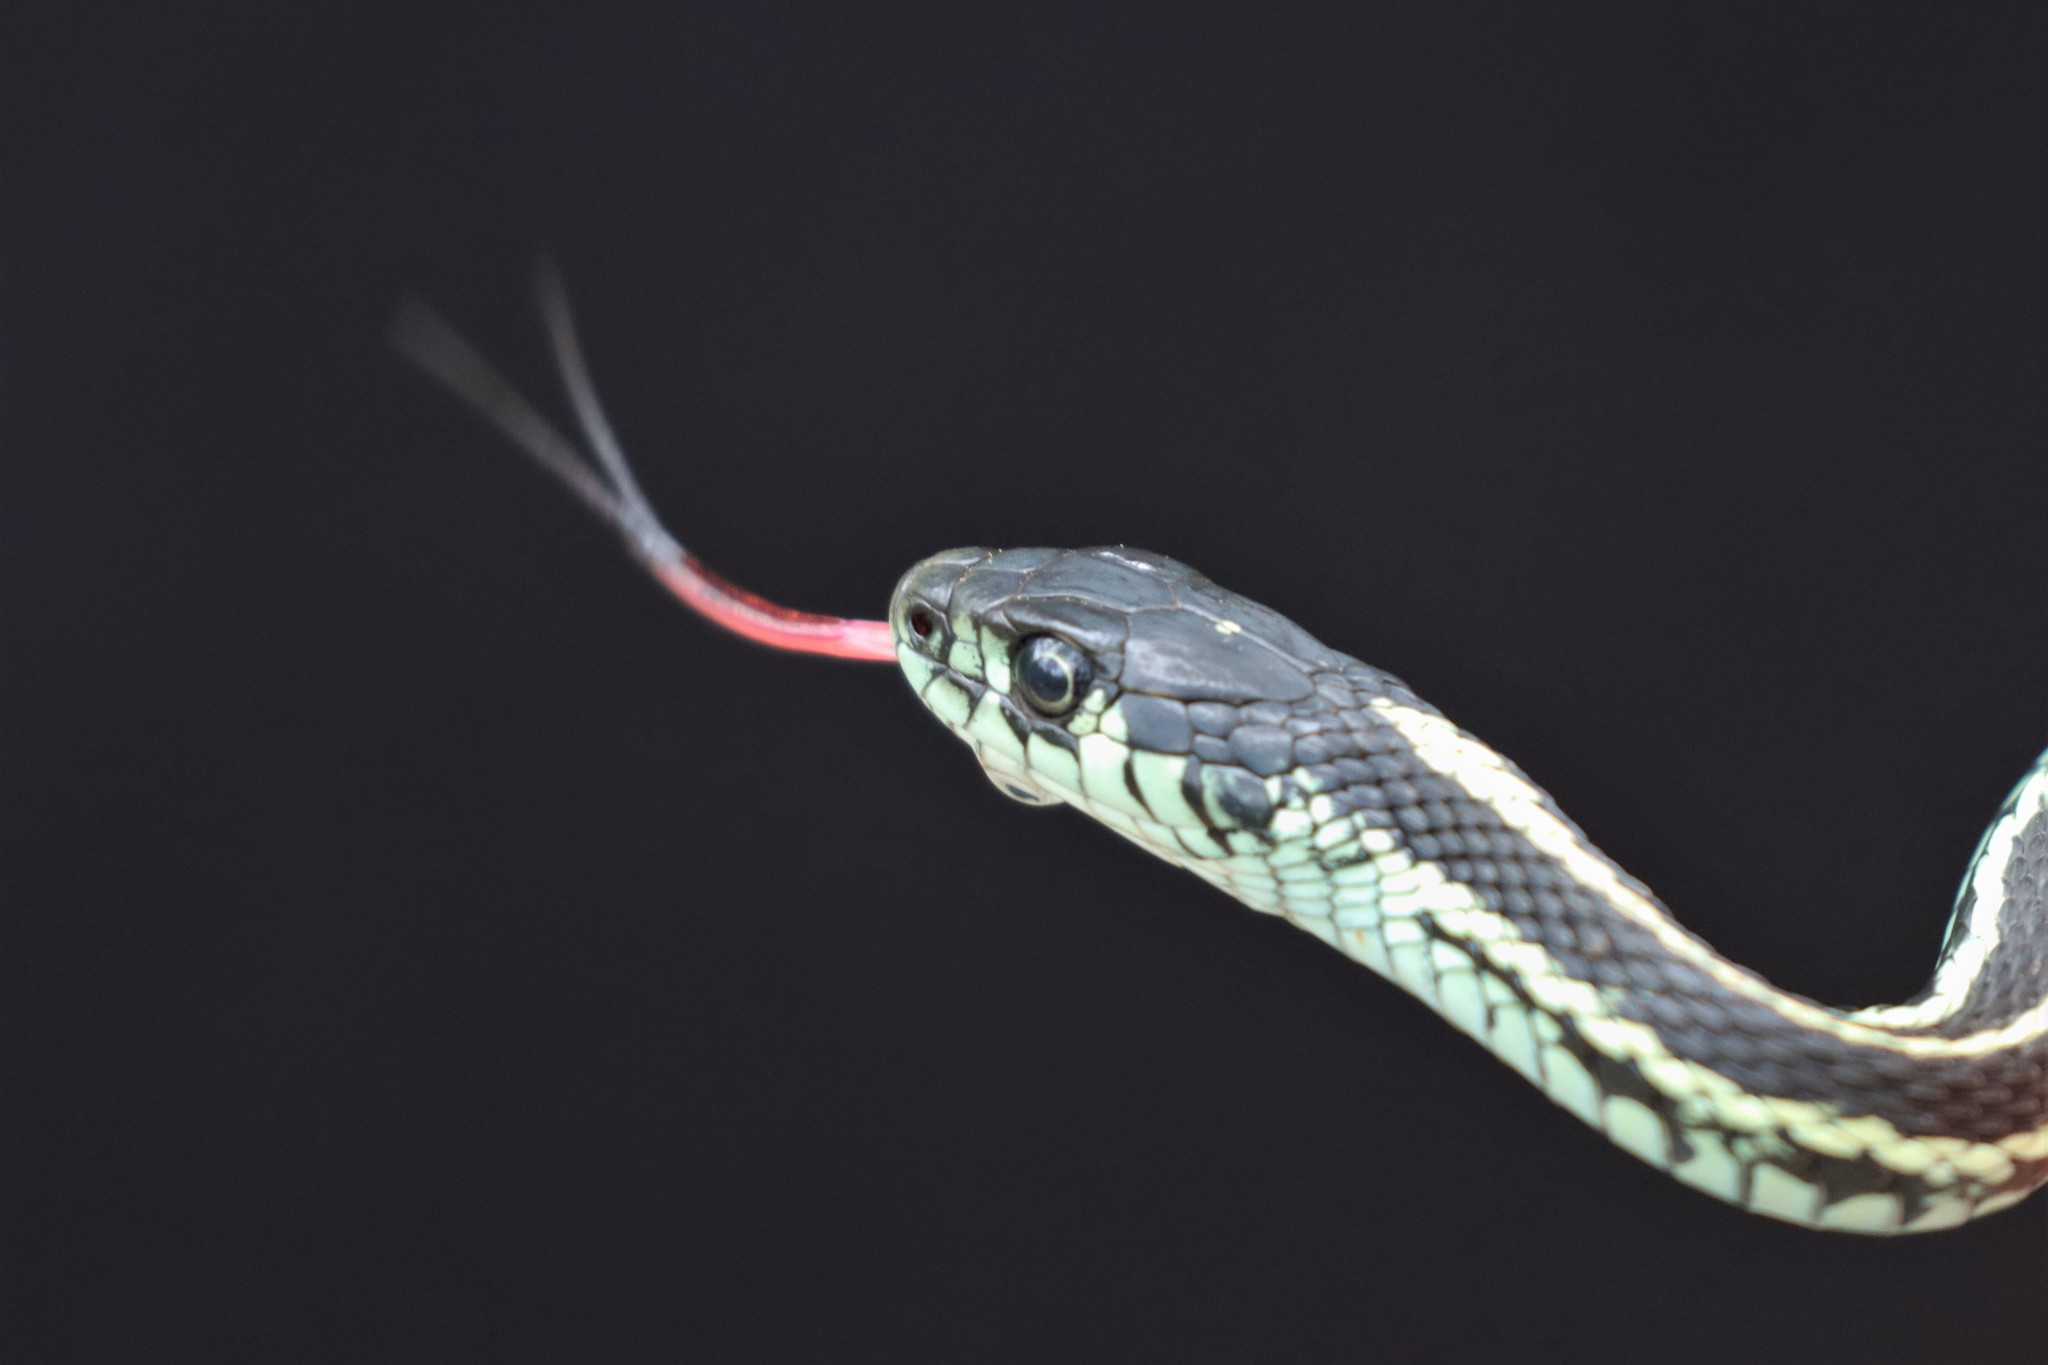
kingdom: Animalia
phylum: Chordata
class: Squamata
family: Colubridae
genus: Thamnophis
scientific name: Thamnophis sirtalis
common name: Common garter snake
